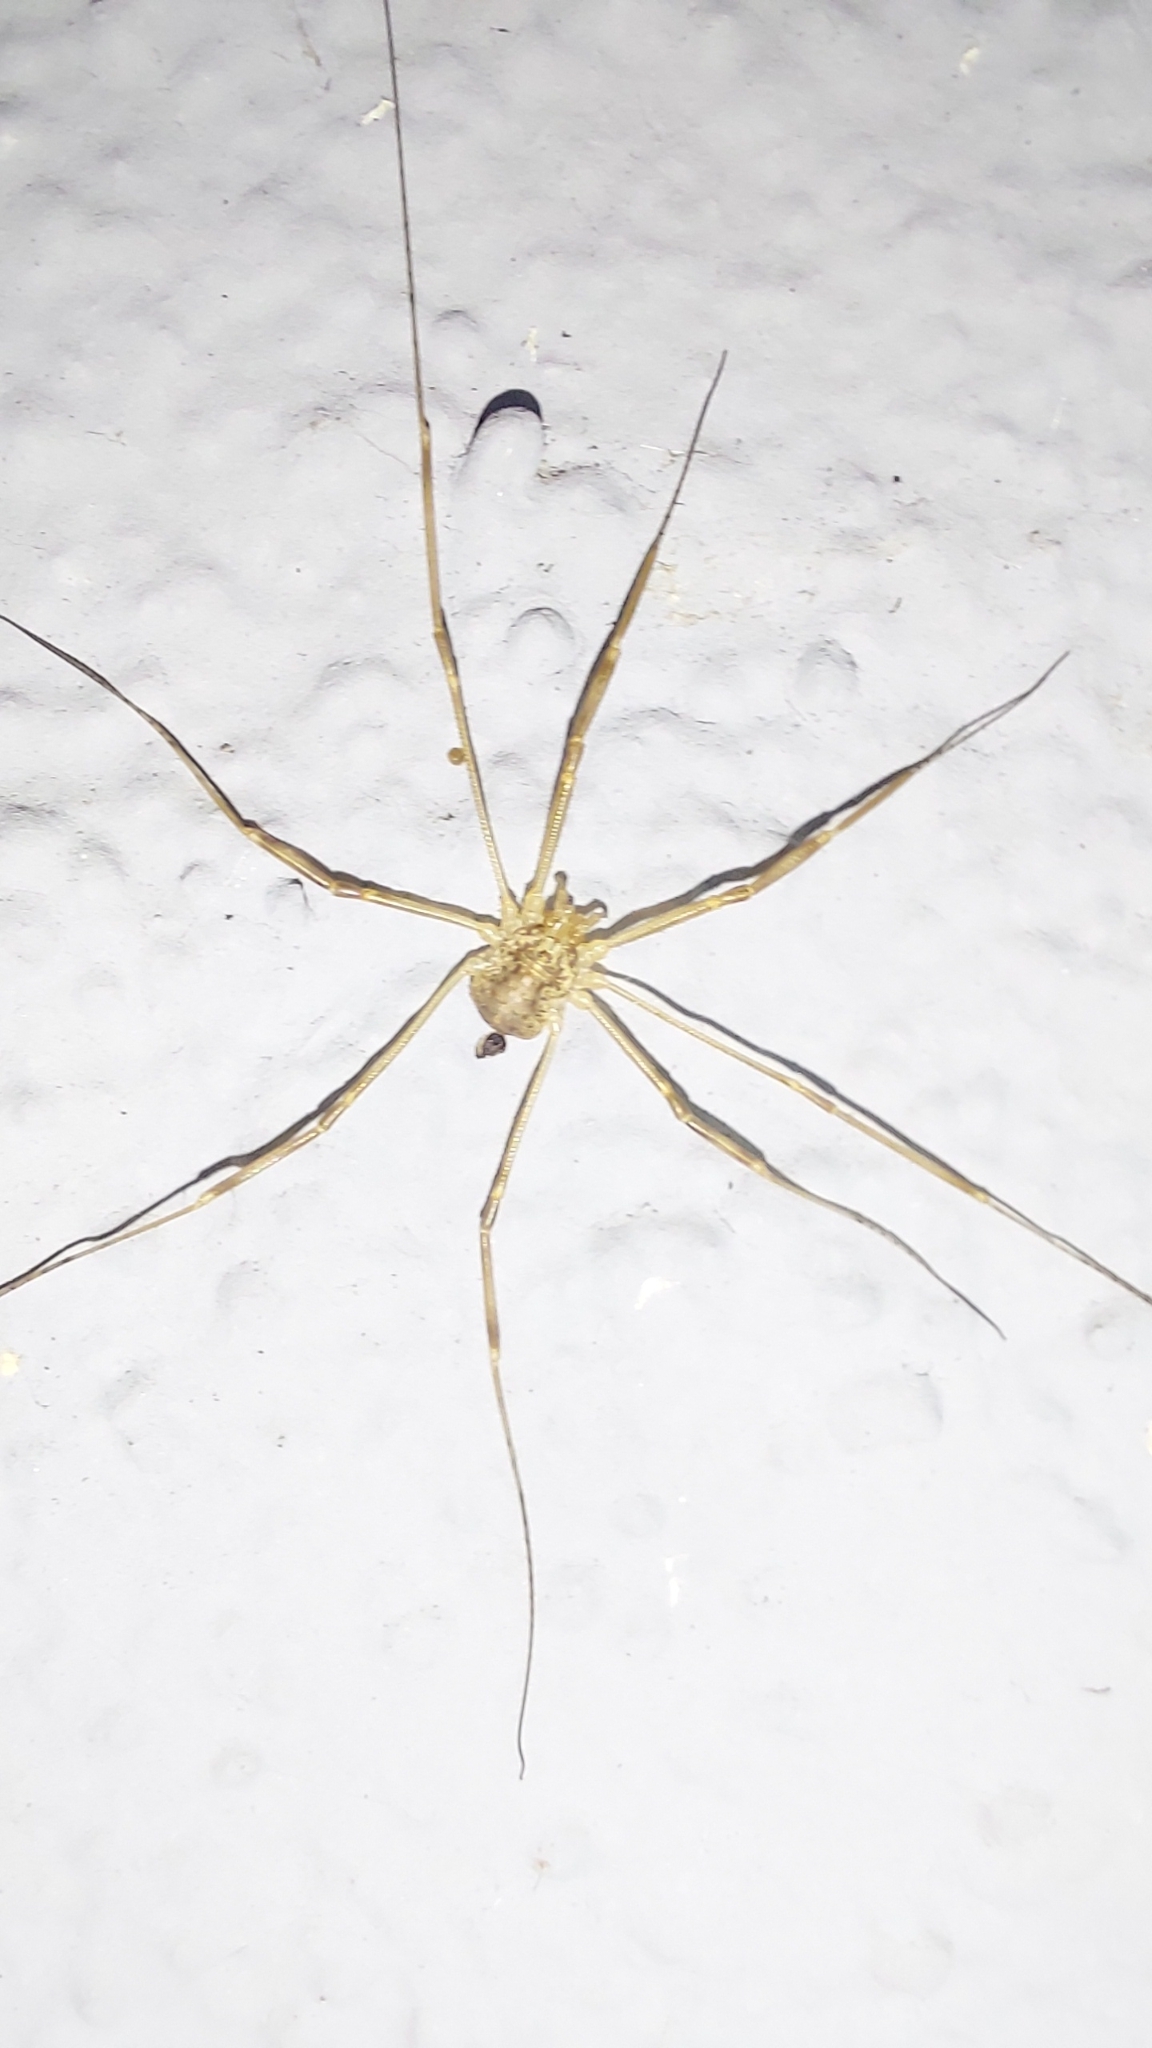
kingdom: Animalia
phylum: Arthropoda
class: Arachnida
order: Opiliones
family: Phalangiidae
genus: Opilio
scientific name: Opilio saxatilis
